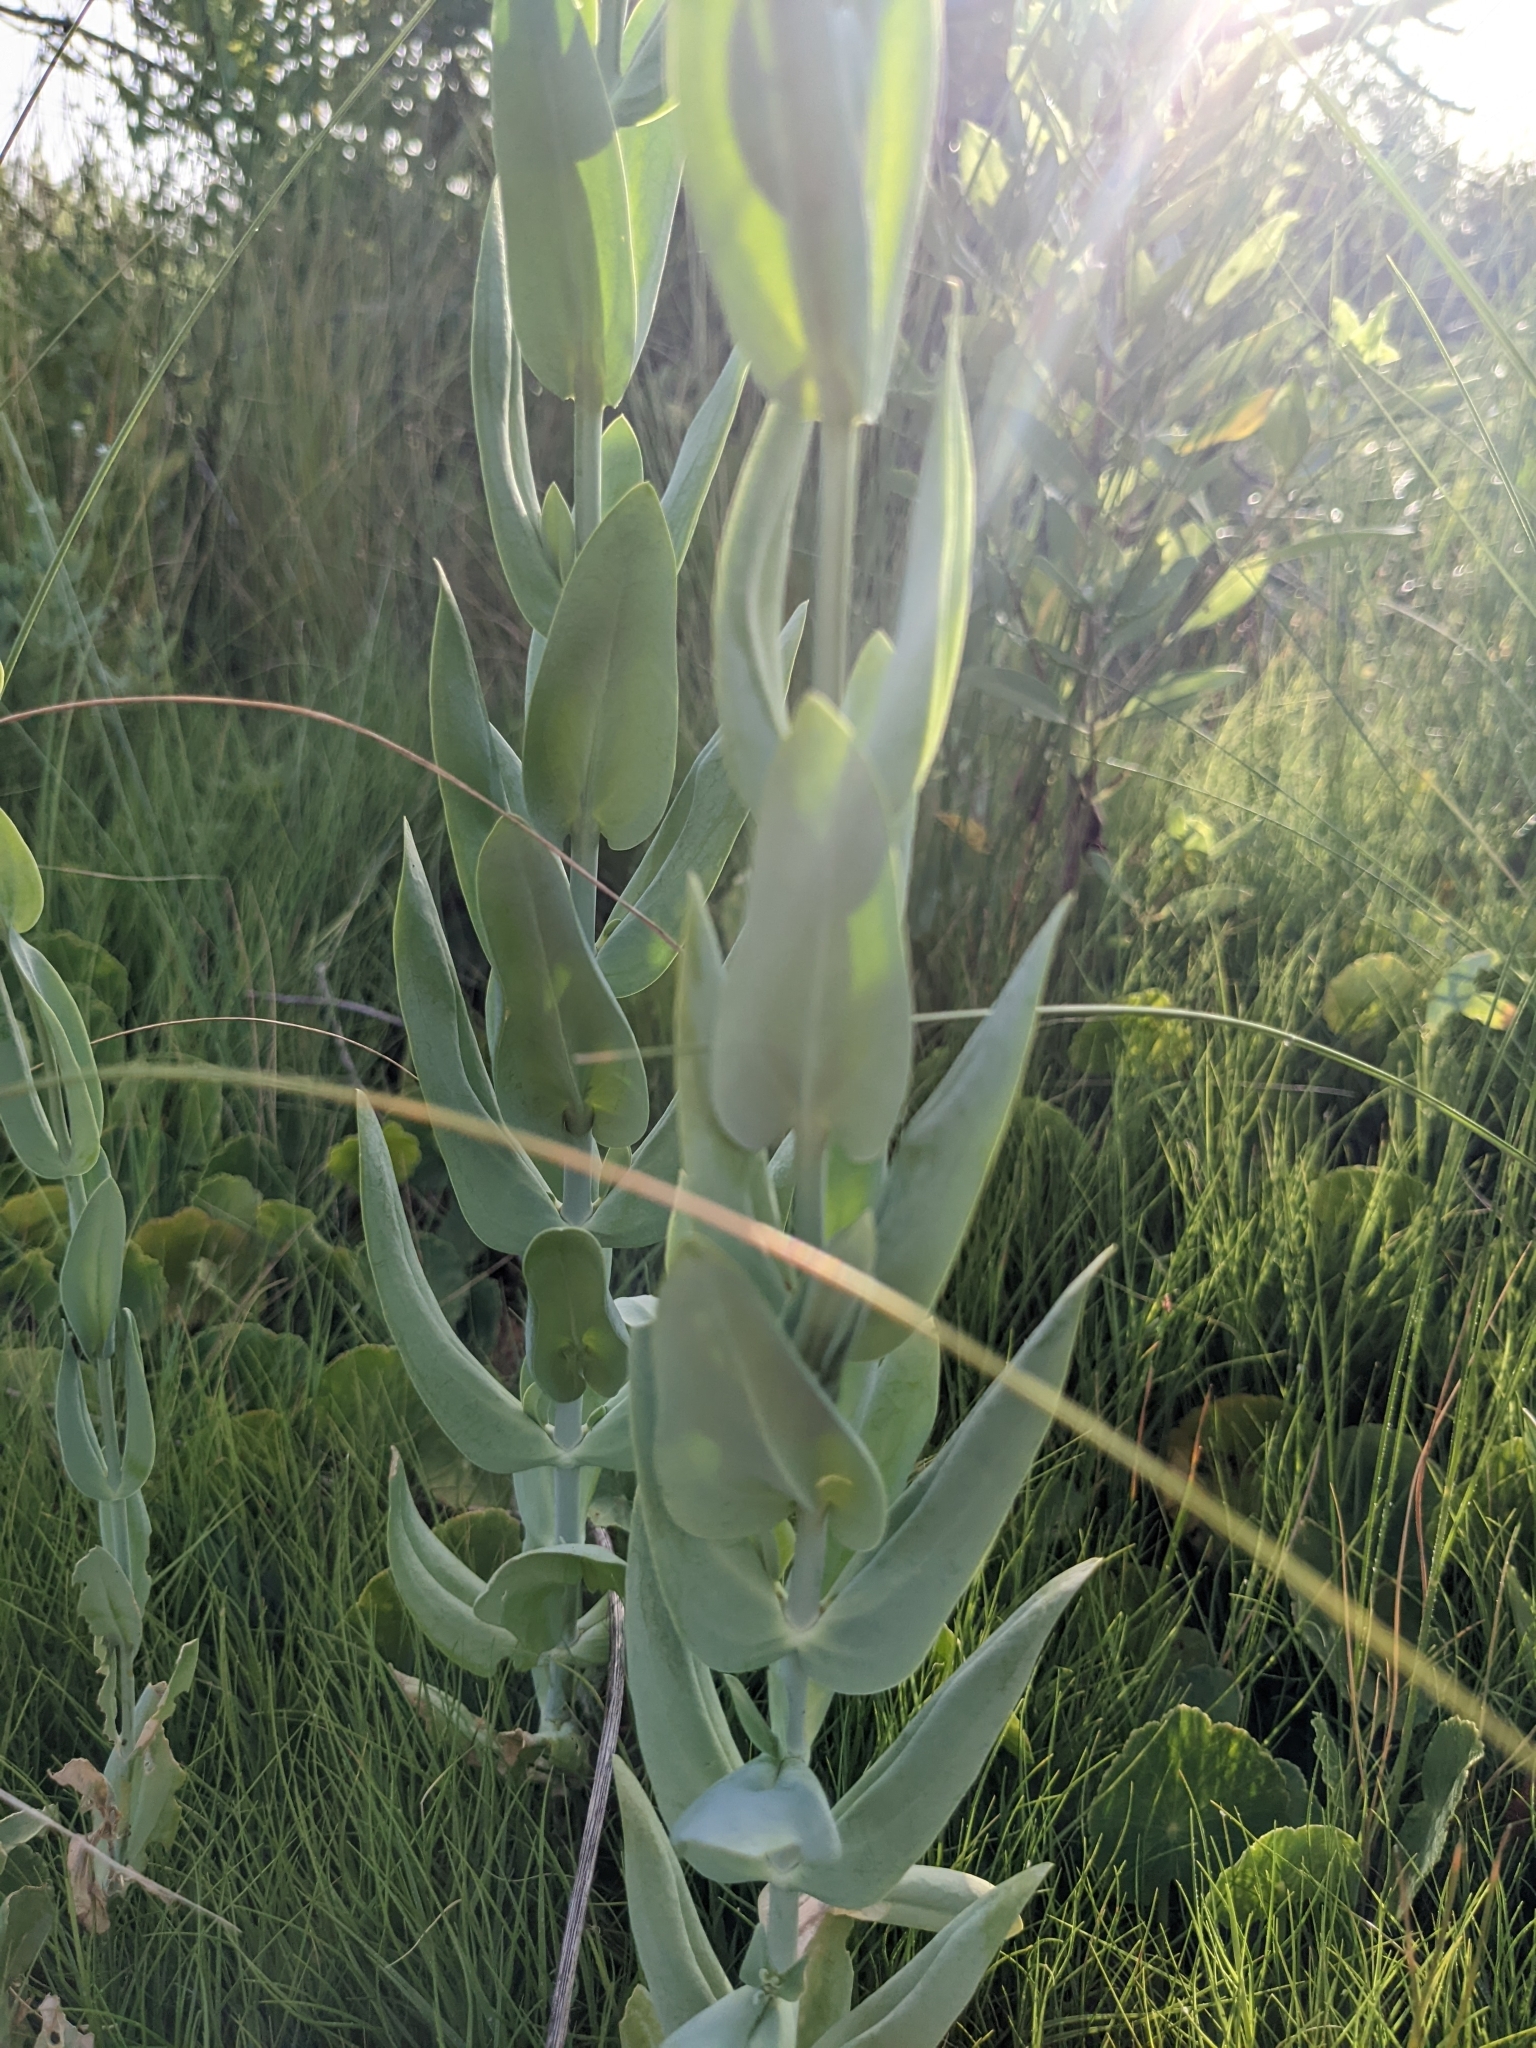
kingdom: Plantae
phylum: Tracheophyta
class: Magnoliopsida
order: Gentianales
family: Gentianaceae
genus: Eustoma
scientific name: Eustoma exaltatum
